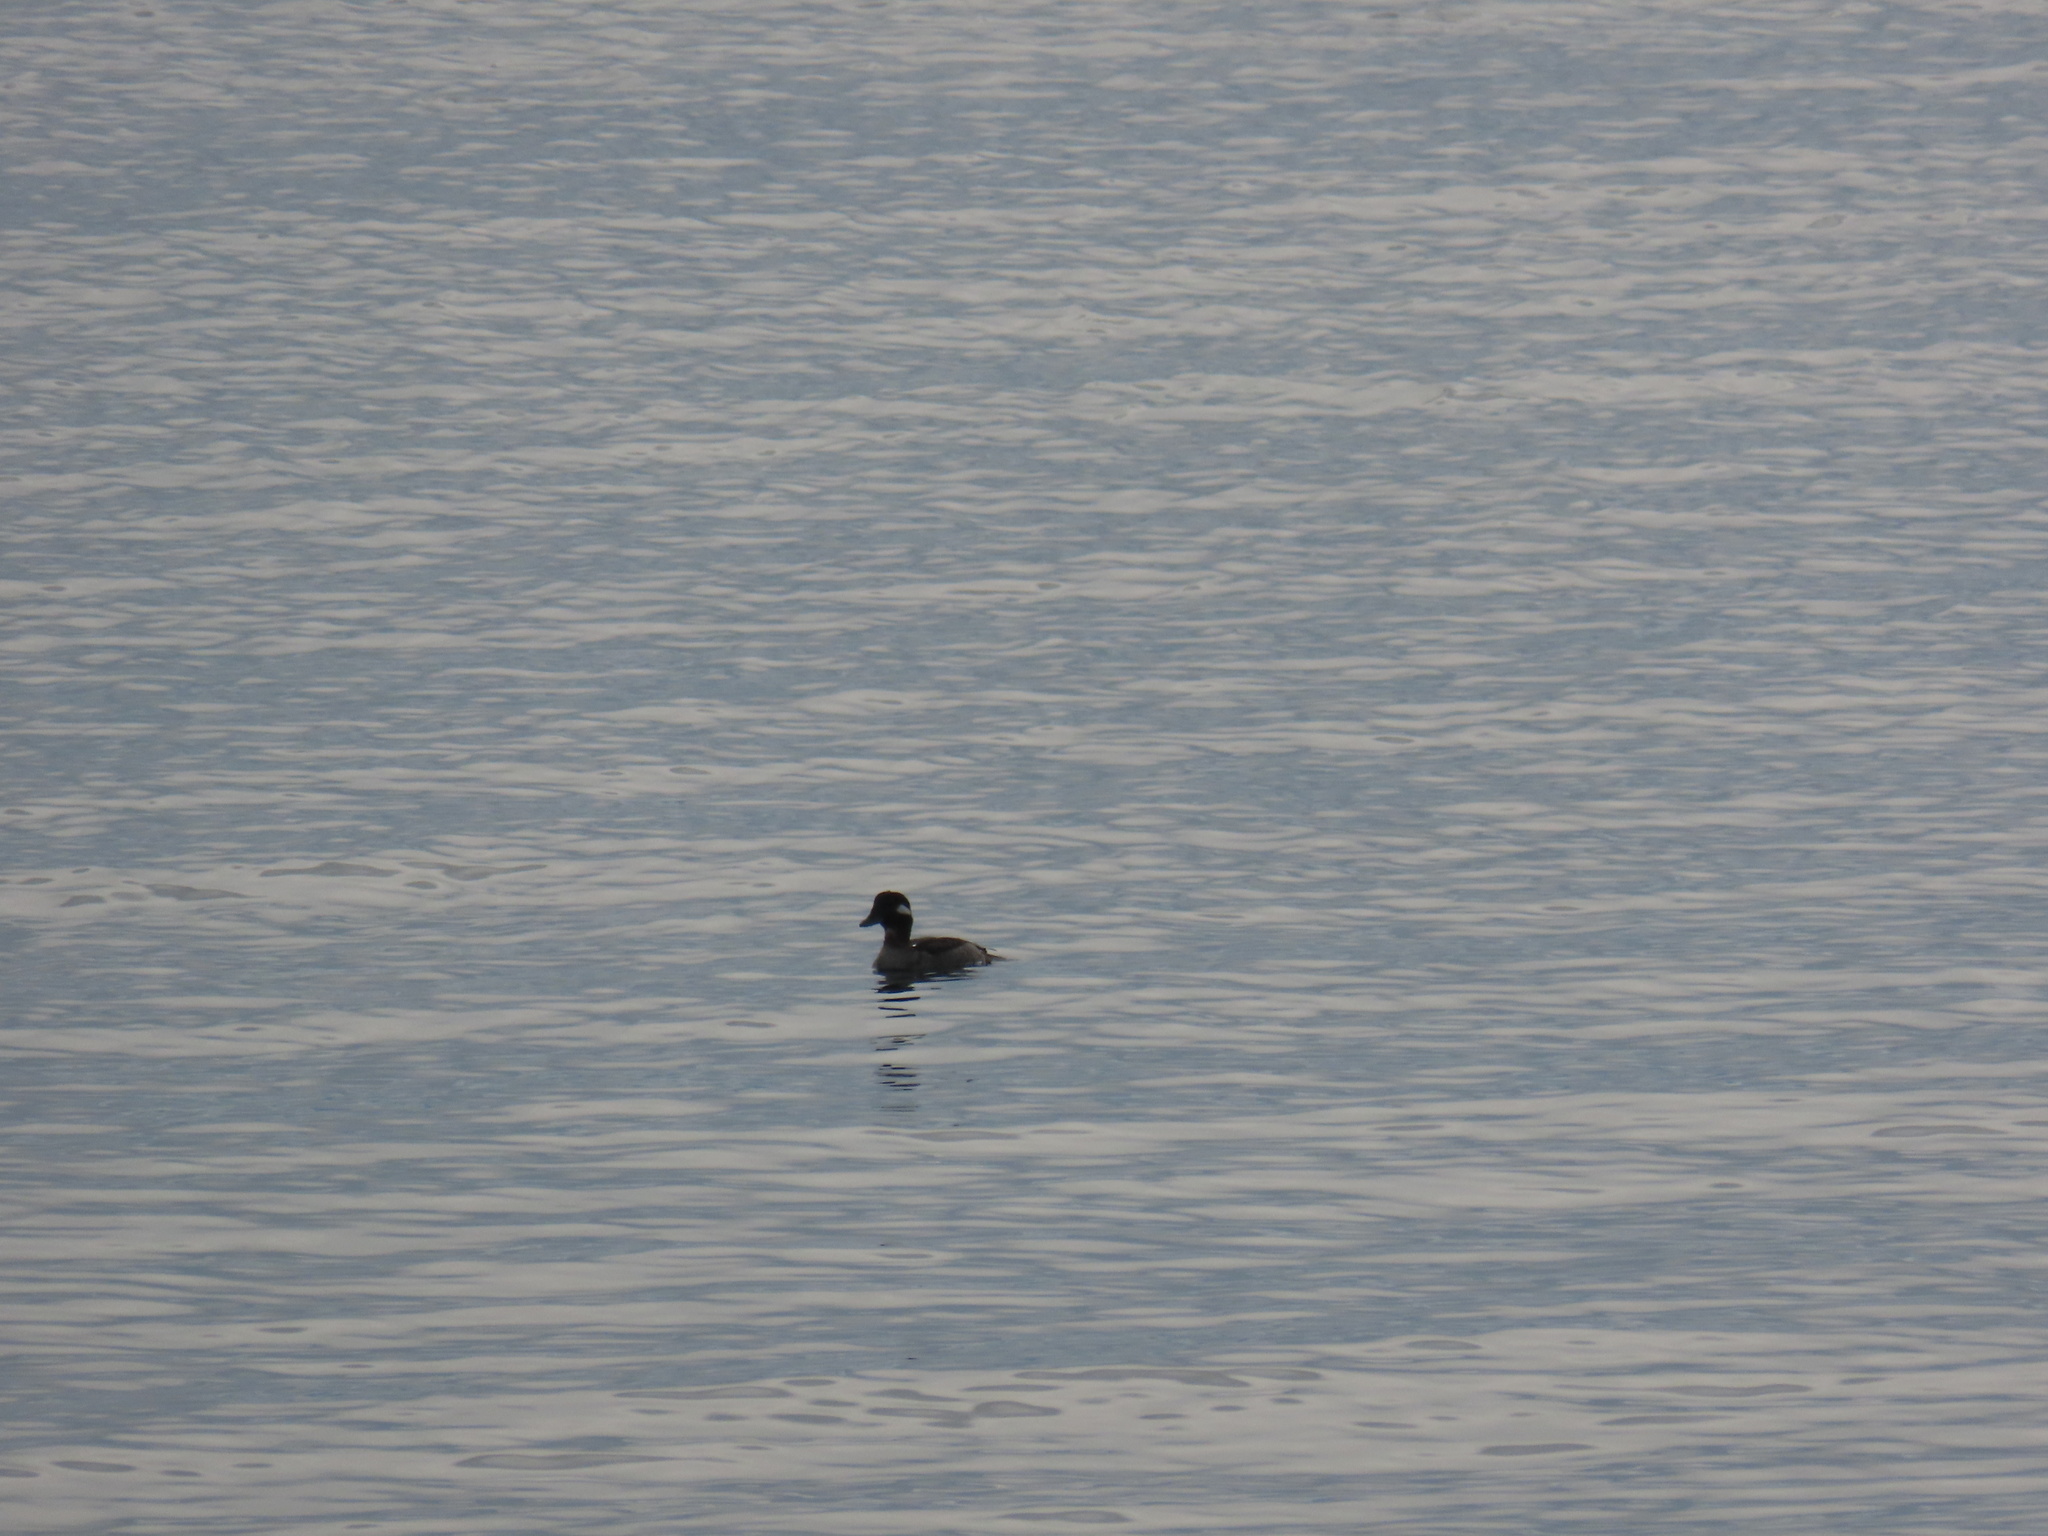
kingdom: Animalia
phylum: Chordata
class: Aves
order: Anseriformes
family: Anatidae
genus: Bucephala
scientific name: Bucephala albeola
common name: Bufflehead
